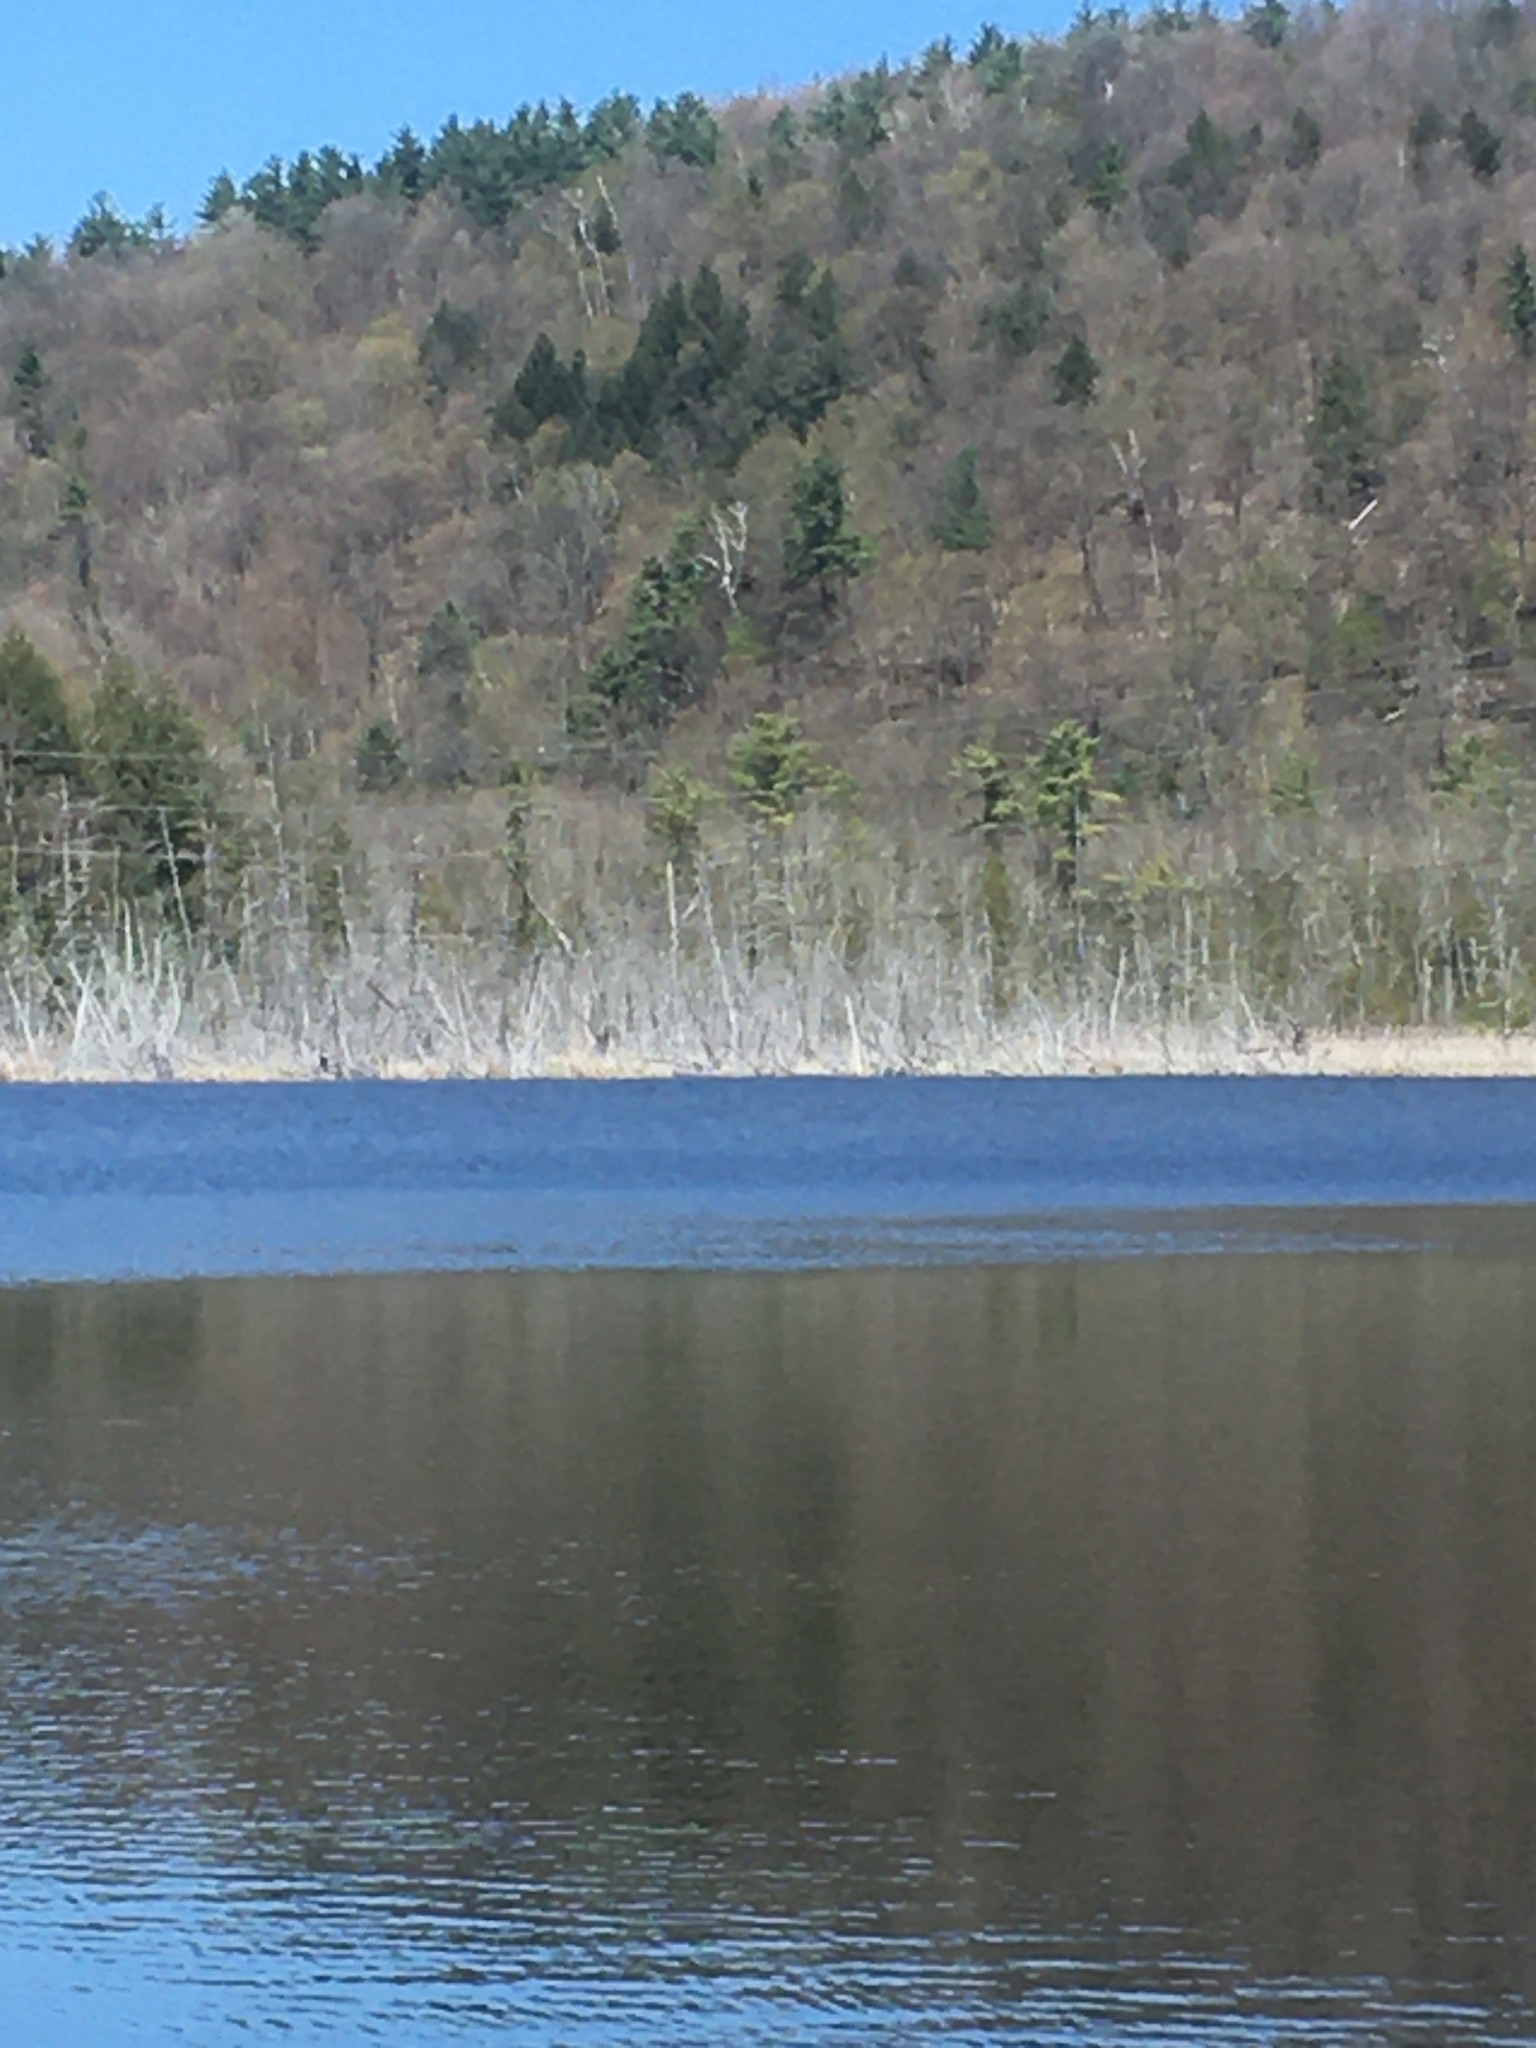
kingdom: Plantae
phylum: Tracheophyta
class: Pinopsida
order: Pinales
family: Pinaceae
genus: Pinus
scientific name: Pinus strobus
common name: Weymouth pine
